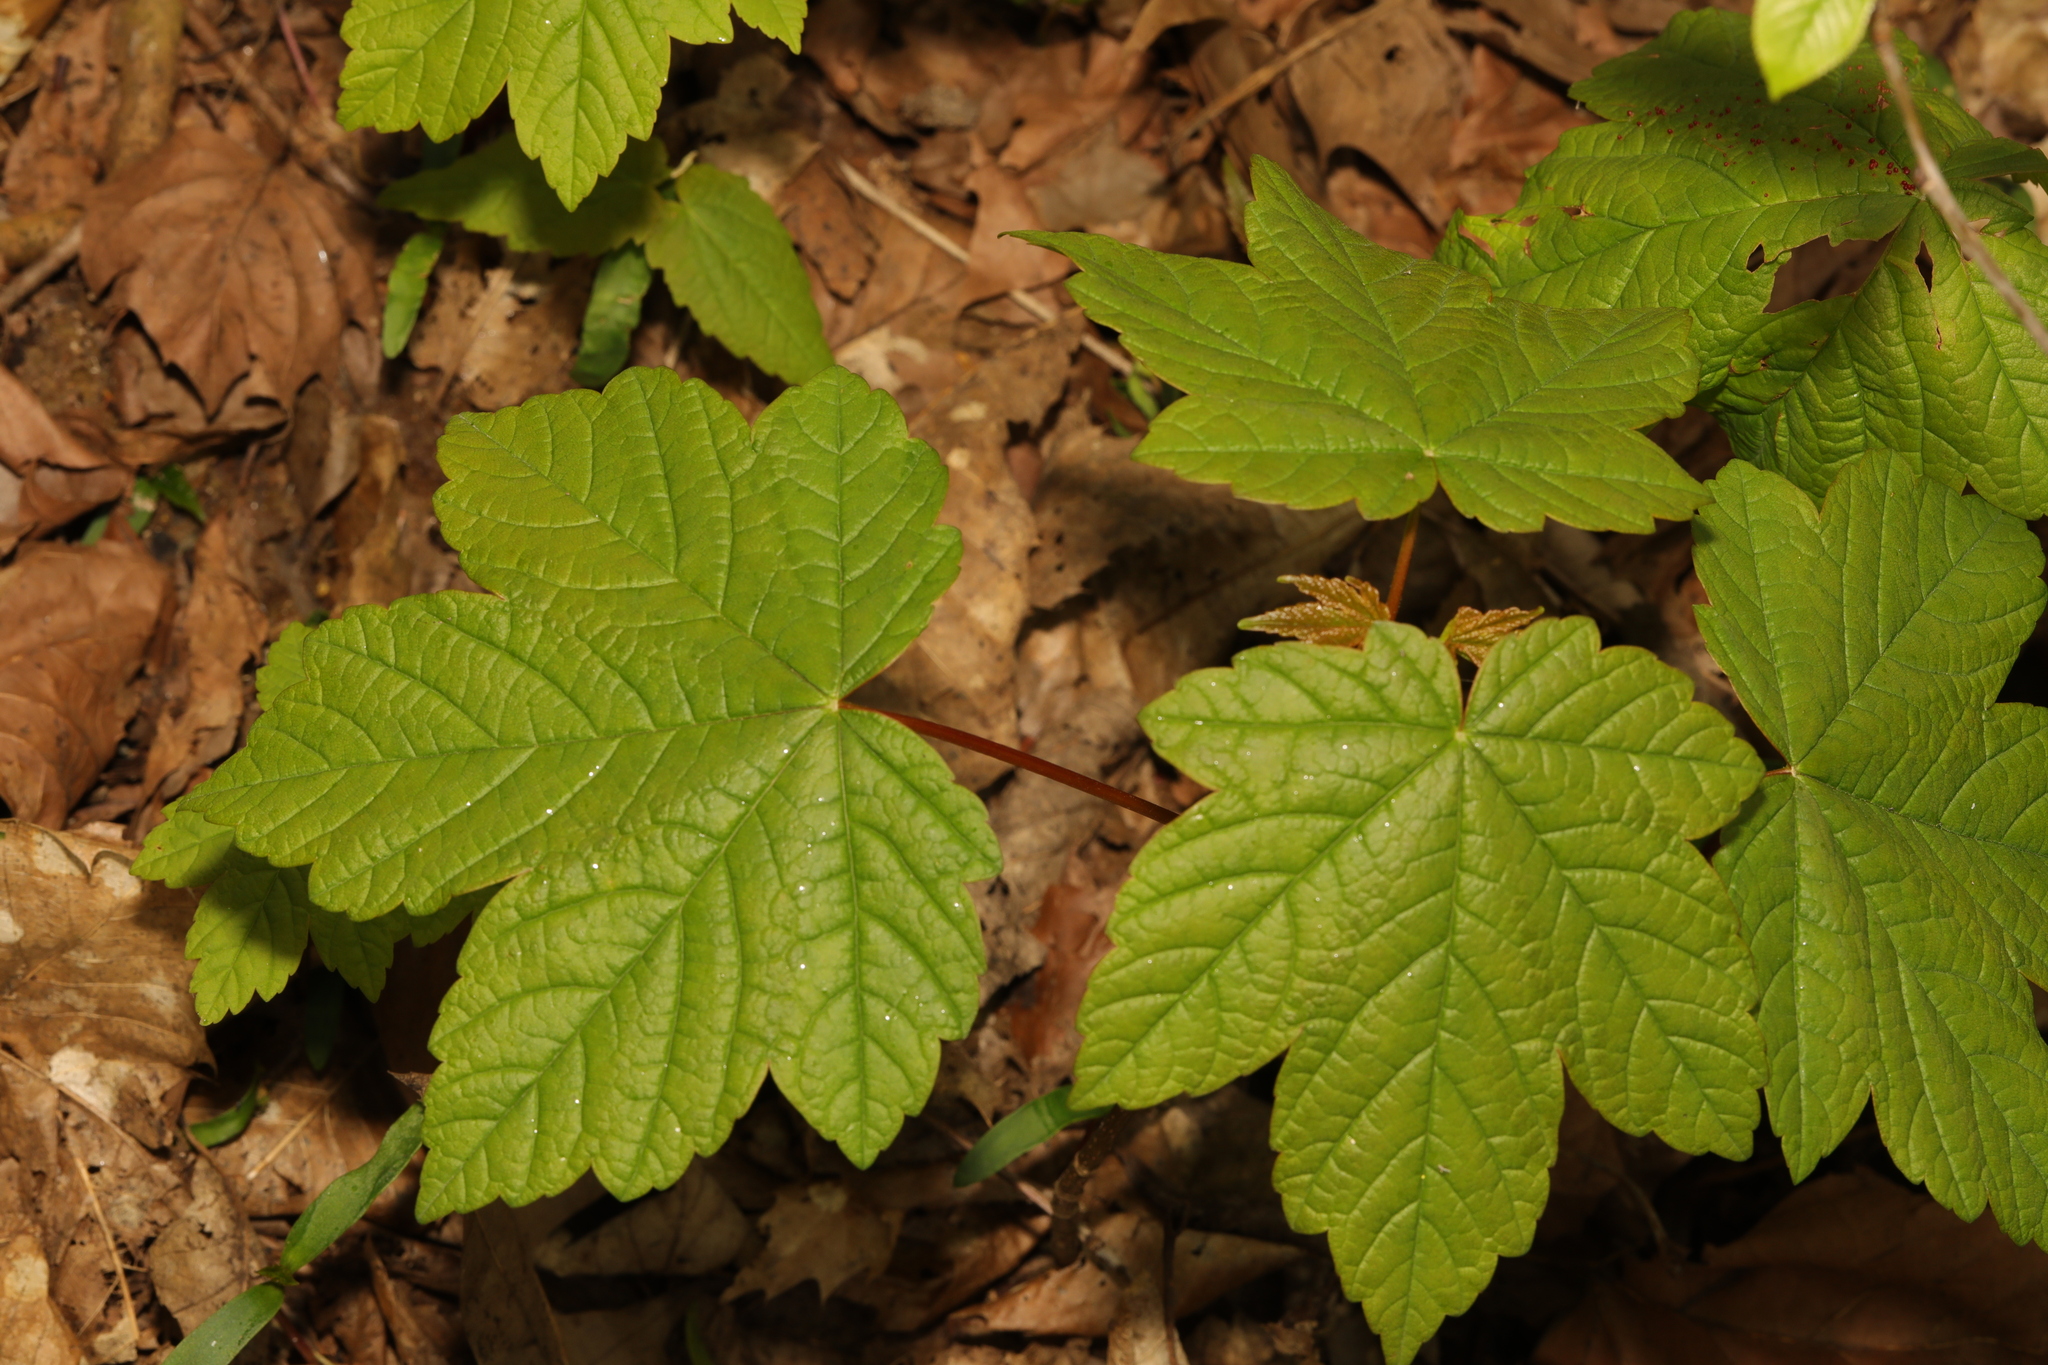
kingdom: Plantae
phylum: Tracheophyta
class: Magnoliopsida
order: Sapindales
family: Sapindaceae
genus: Acer
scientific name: Acer pseudoplatanus
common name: Sycamore
